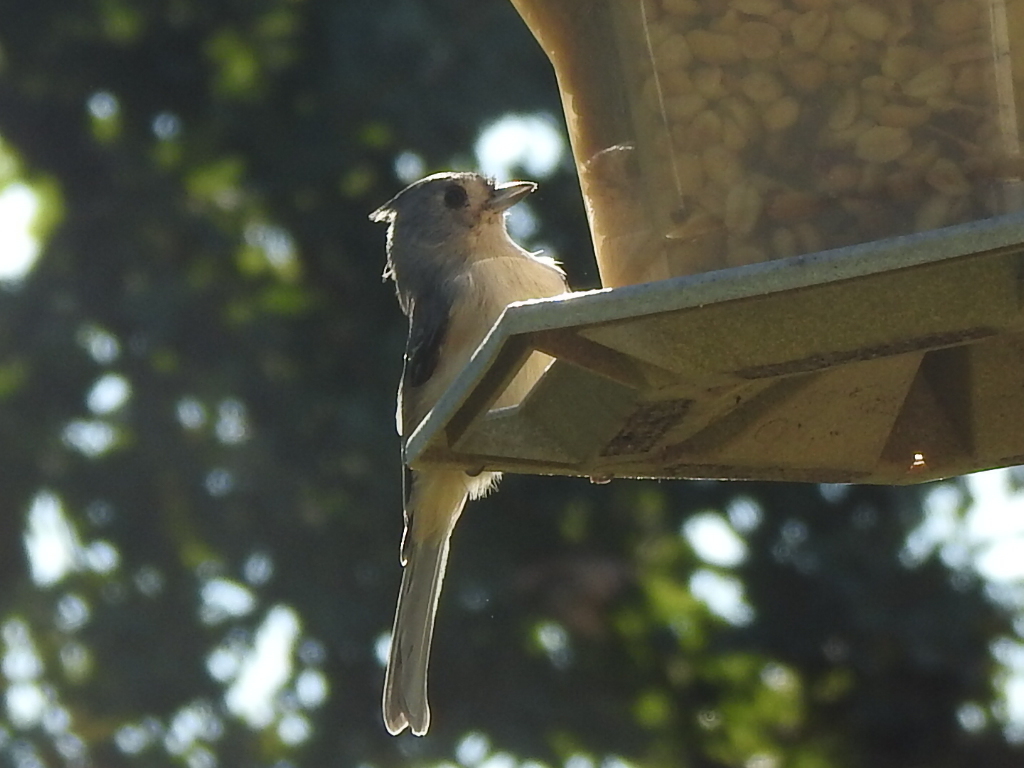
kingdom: Animalia
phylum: Chordata
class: Aves
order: Passeriformes
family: Paridae
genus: Baeolophus
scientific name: Baeolophus bicolor
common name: Tufted titmouse
